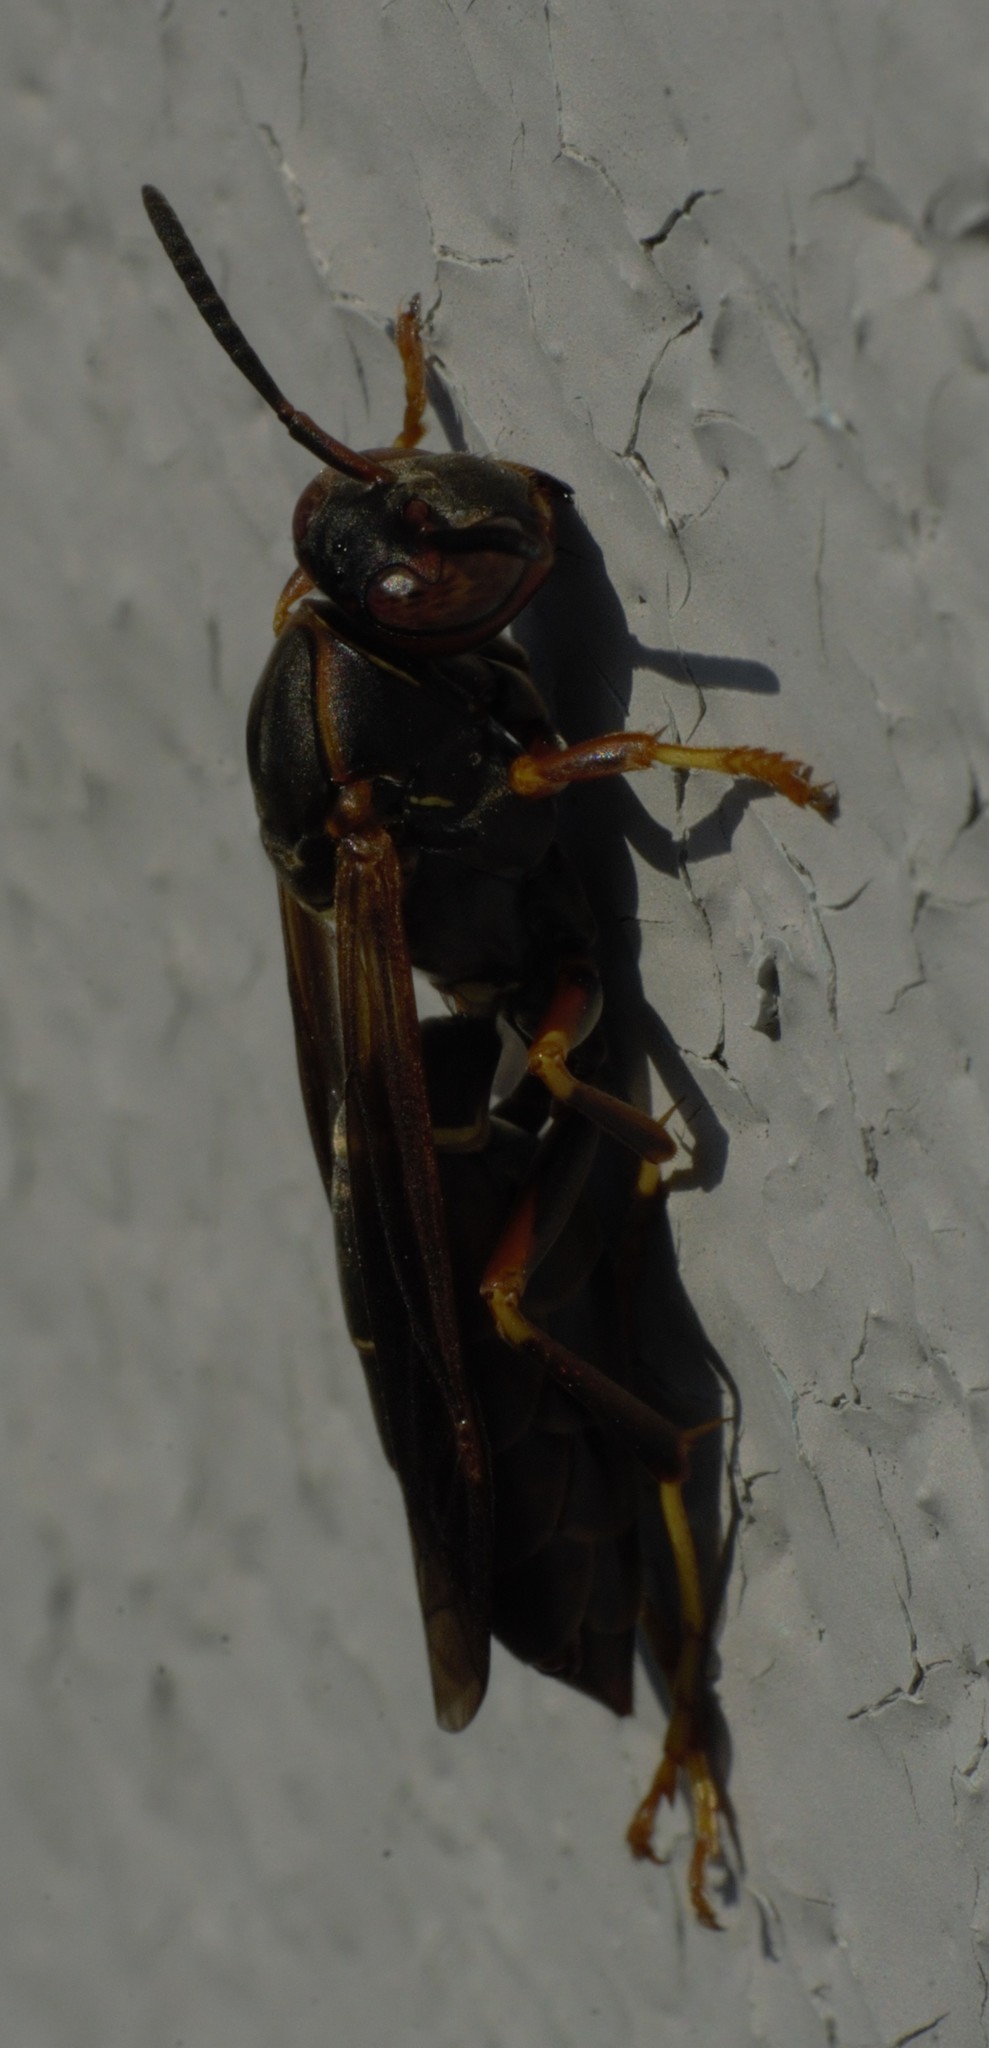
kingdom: Animalia
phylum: Arthropoda
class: Insecta
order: Hymenoptera
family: Eumenidae
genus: Polistes
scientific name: Polistes fuscatus
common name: Dark paper wasp
